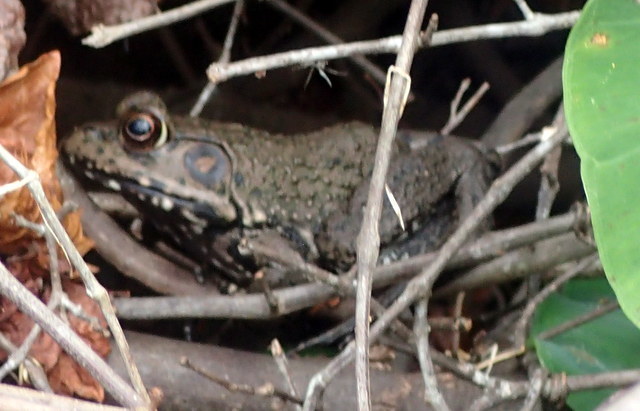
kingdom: Animalia
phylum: Chordata
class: Amphibia
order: Anura
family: Ranidae
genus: Lithobates
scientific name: Lithobates heckscheri
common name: River frog
